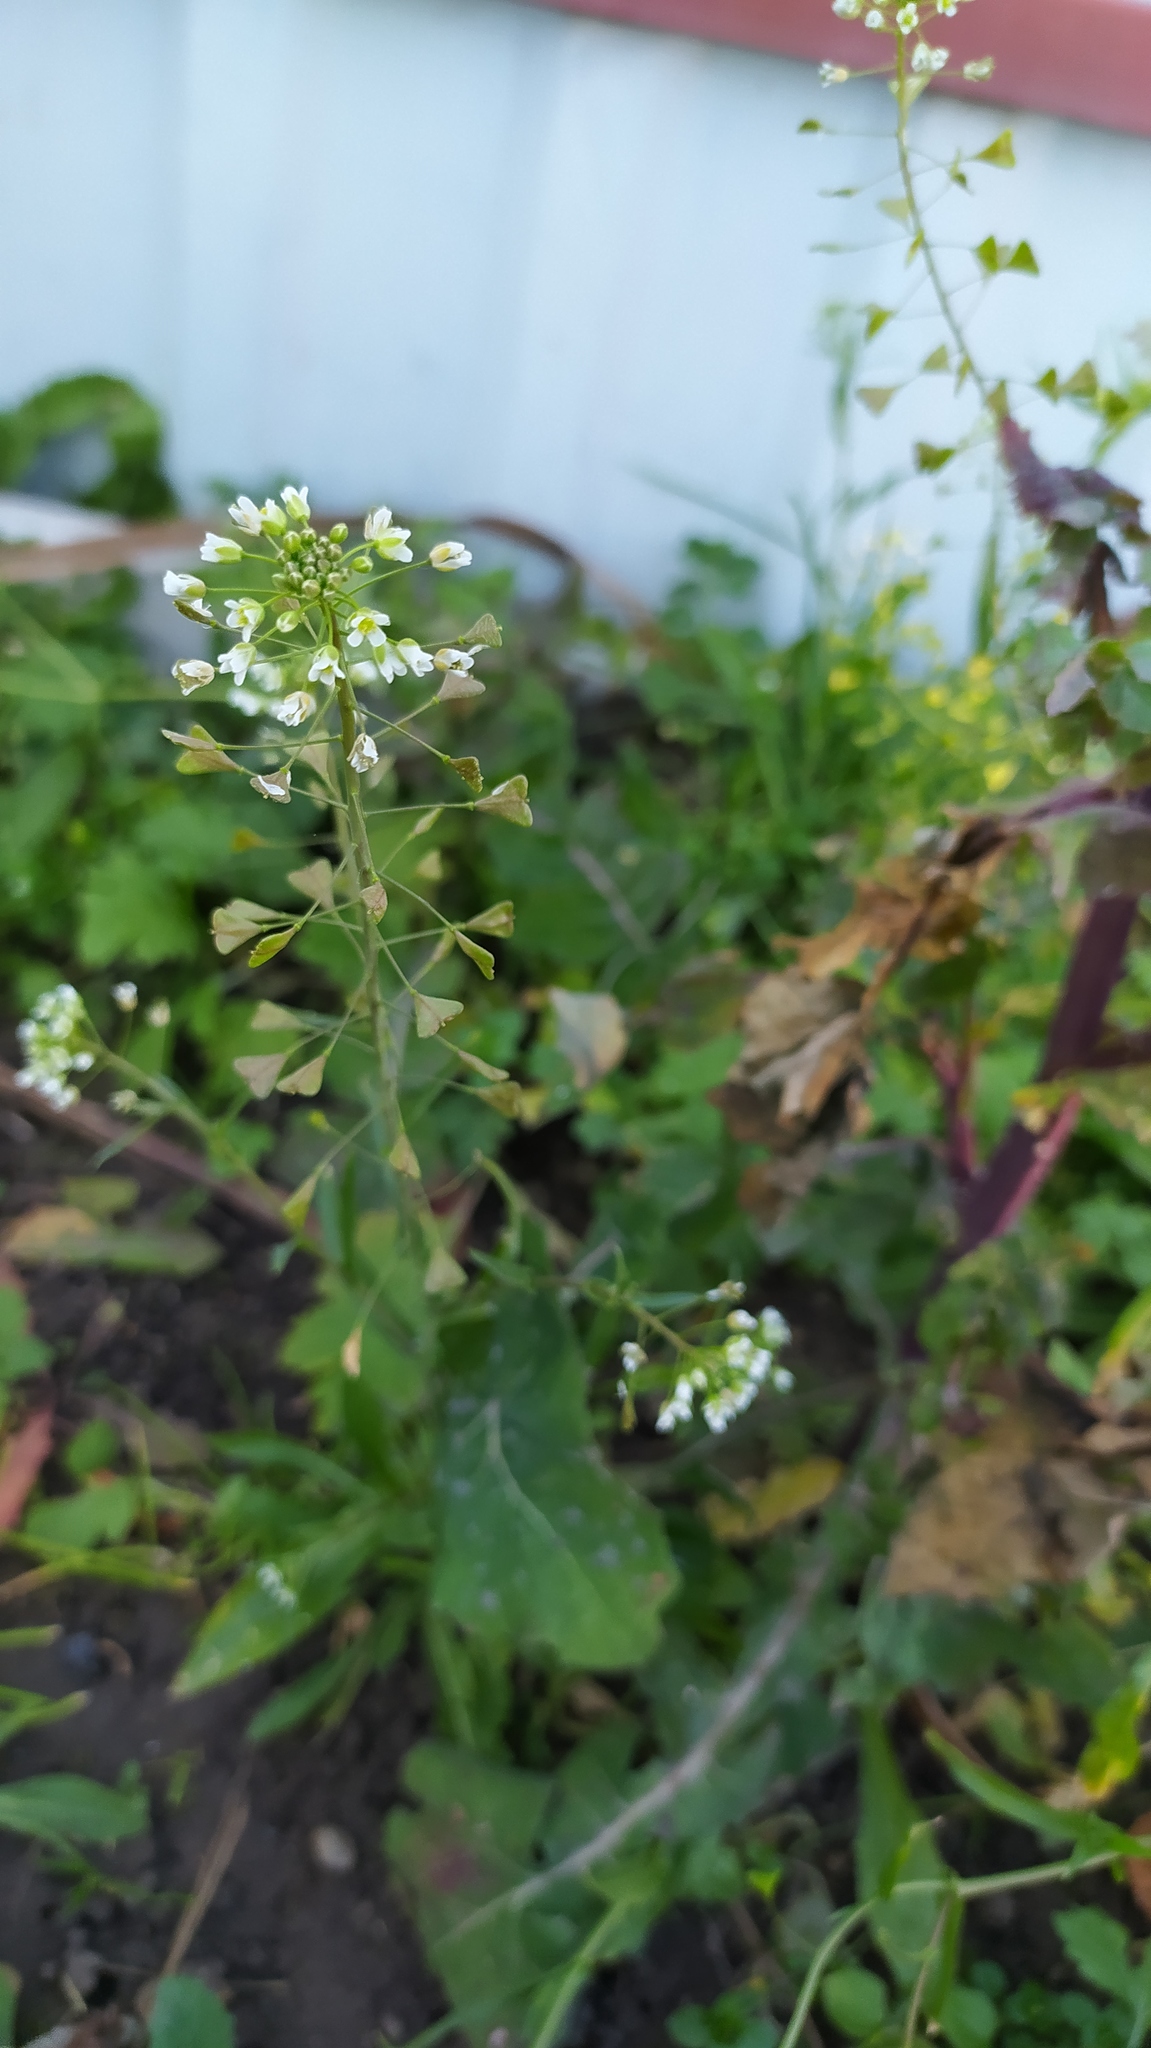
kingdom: Plantae
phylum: Tracheophyta
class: Magnoliopsida
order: Brassicales
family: Brassicaceae
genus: Capsella
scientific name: Capsella bursa-pastoris
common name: Shepherd's purse
